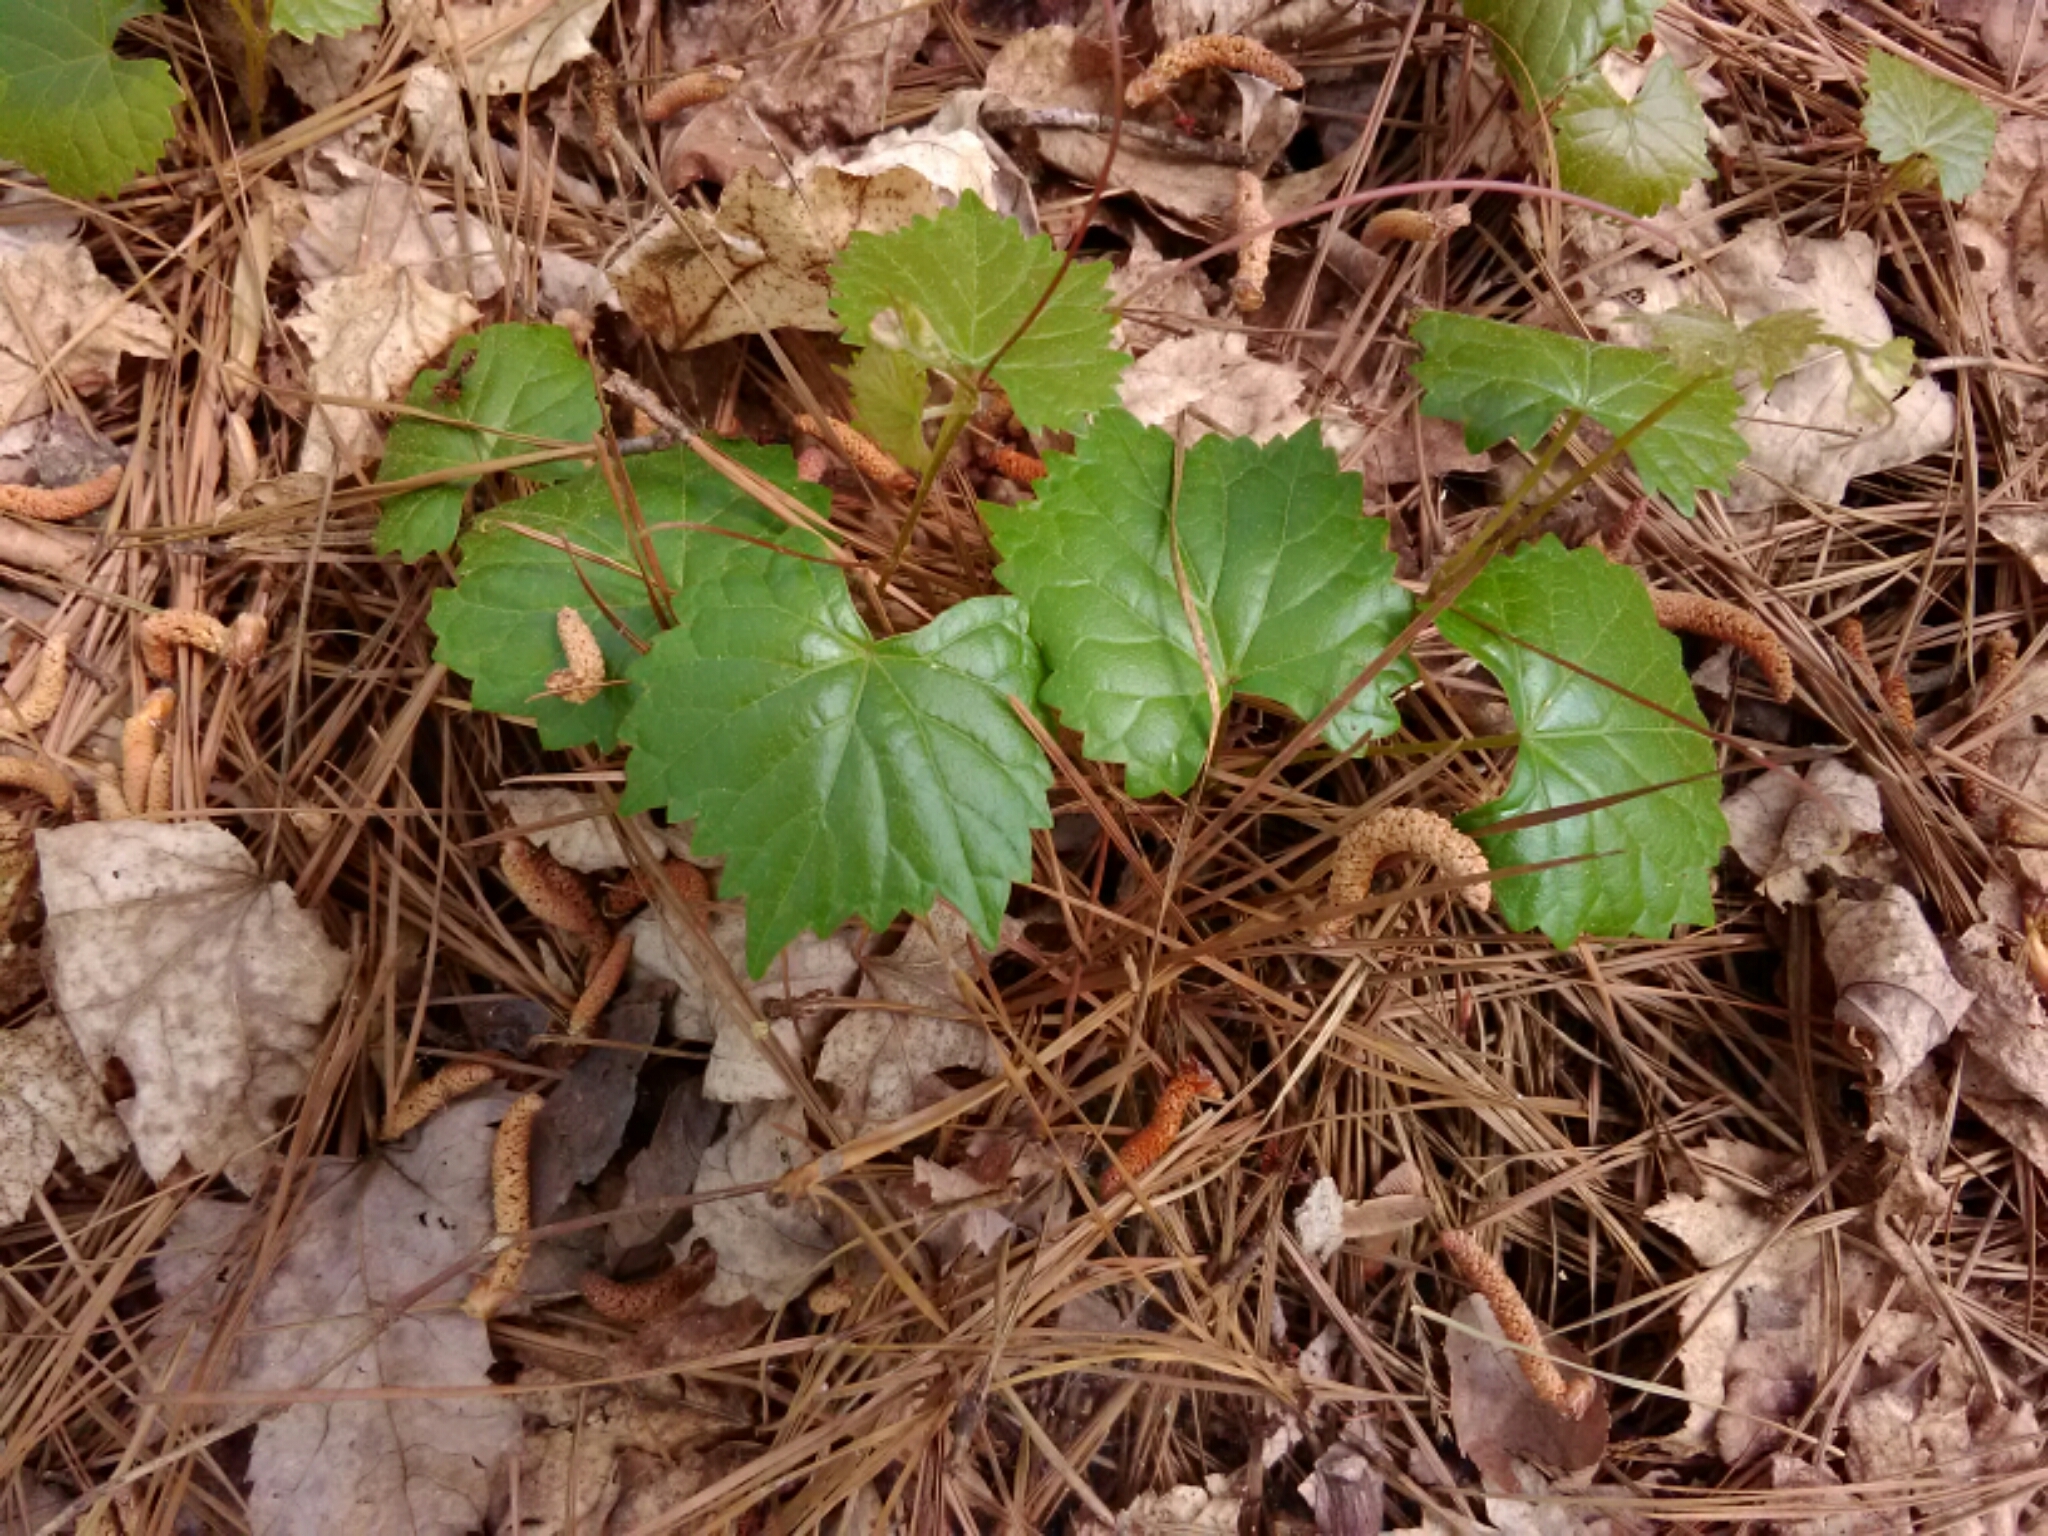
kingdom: Plantae
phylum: Tracheophyta
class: Magnoliopsida
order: Vitales
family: Vitaceae
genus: Vitis
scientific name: Vitis rotundifolia
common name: Muscadine grape
